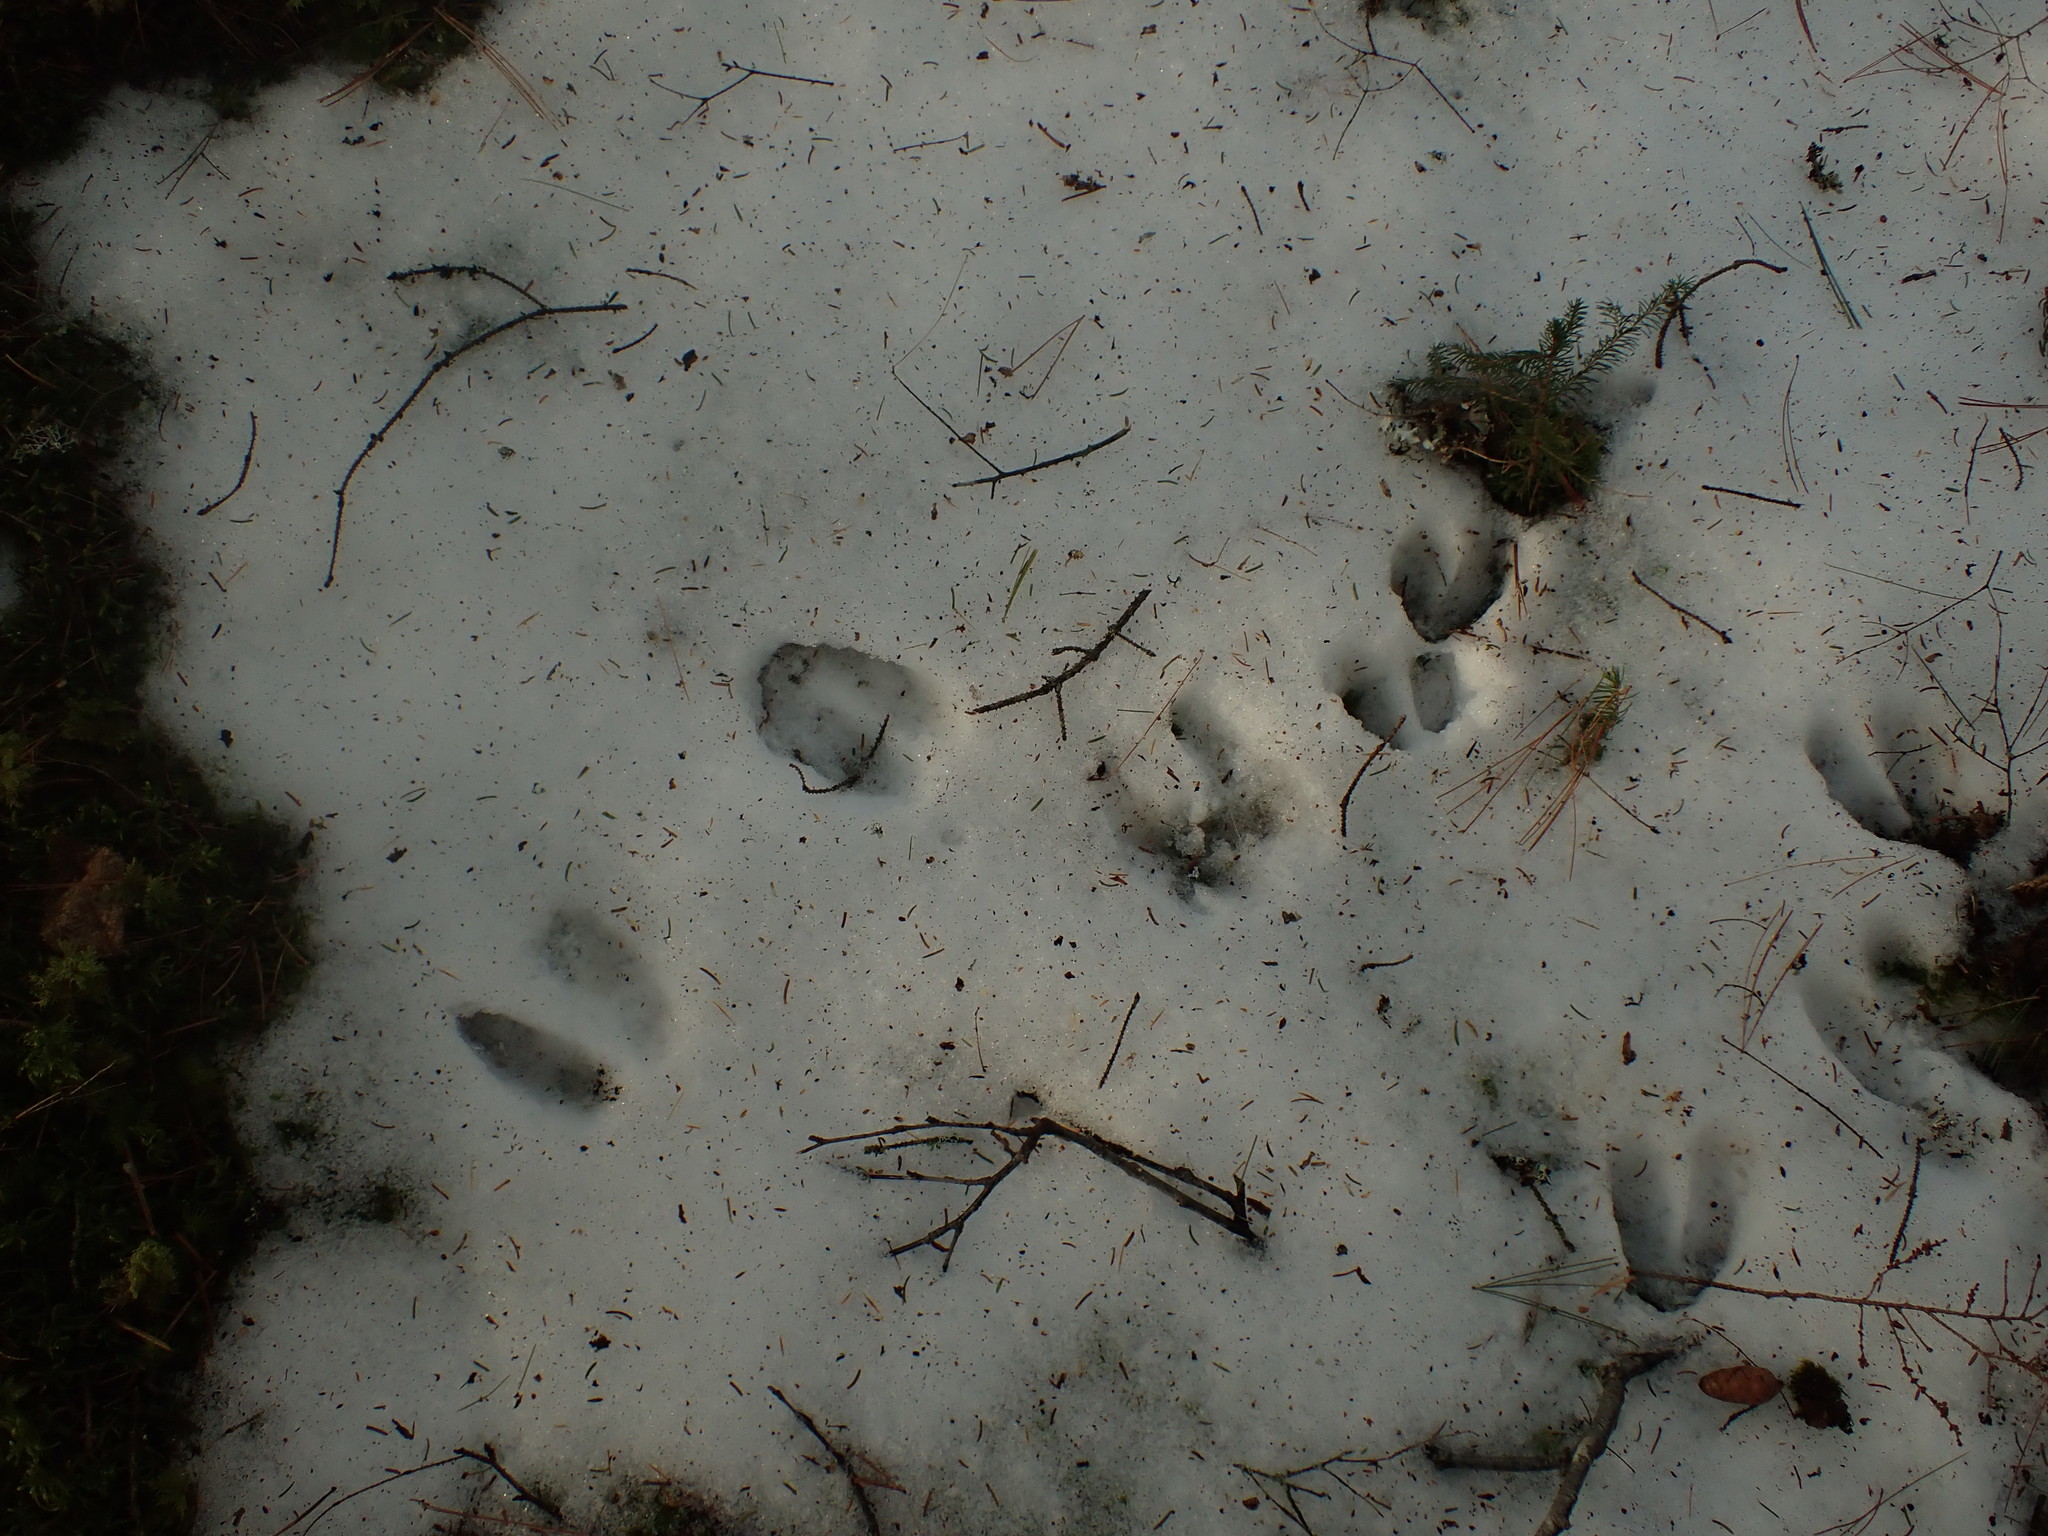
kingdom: Animalia
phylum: Chordata
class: Mammalia
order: Artiodactyla
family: Cervidae
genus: Odocoileus
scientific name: Odocoileus virginianus
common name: White-tailed deer
